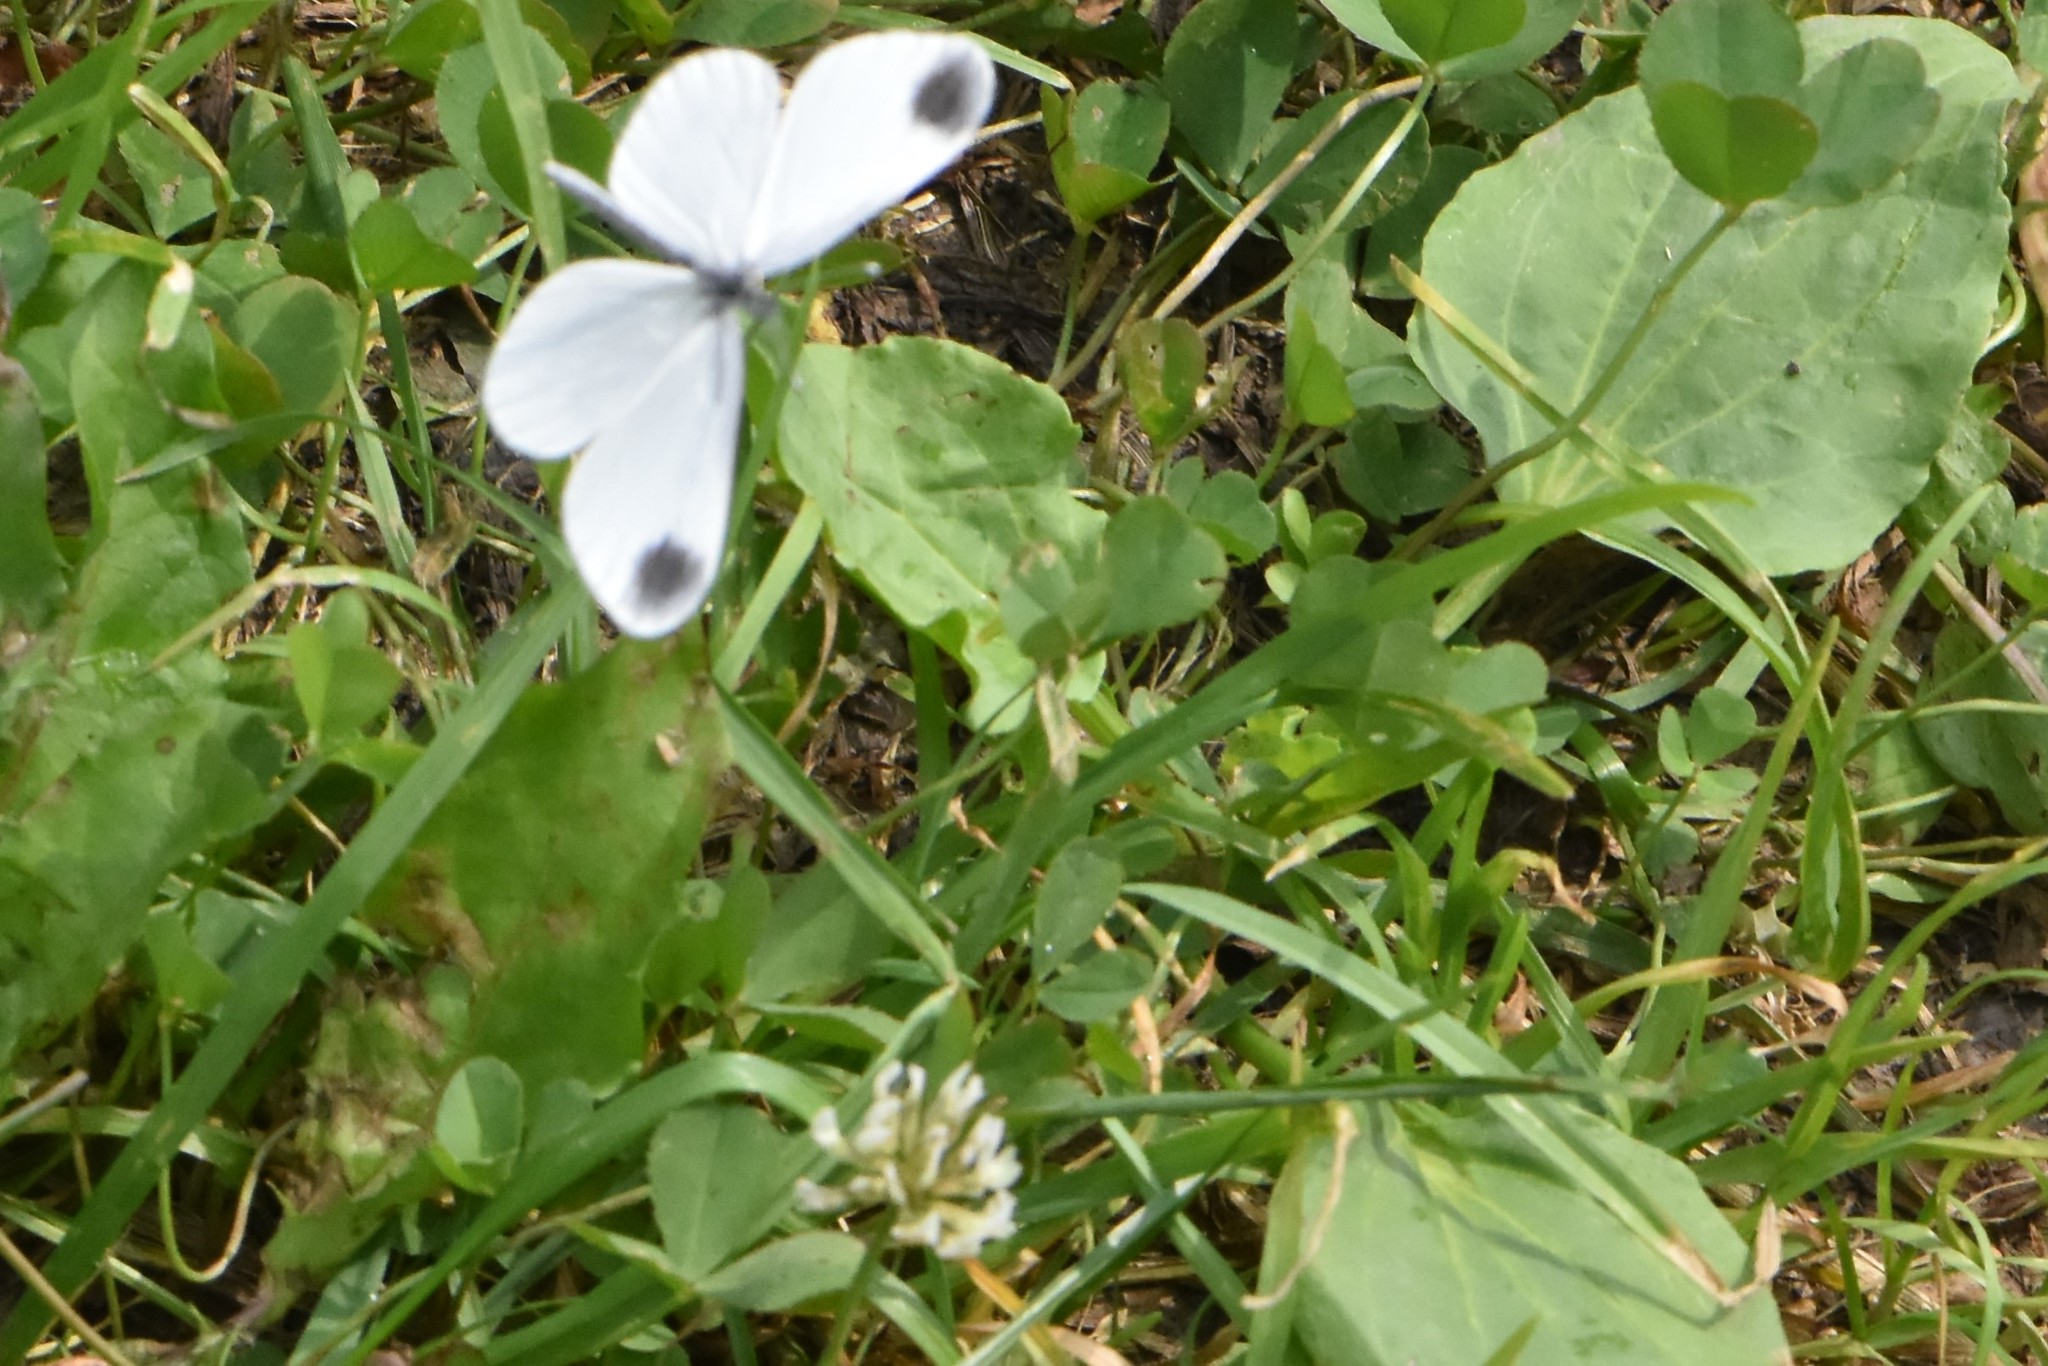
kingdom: Animalia
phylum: Arthropoda
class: Insecta
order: Lepidoptera
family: Pieridae
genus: Leptidea
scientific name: Leptidea
